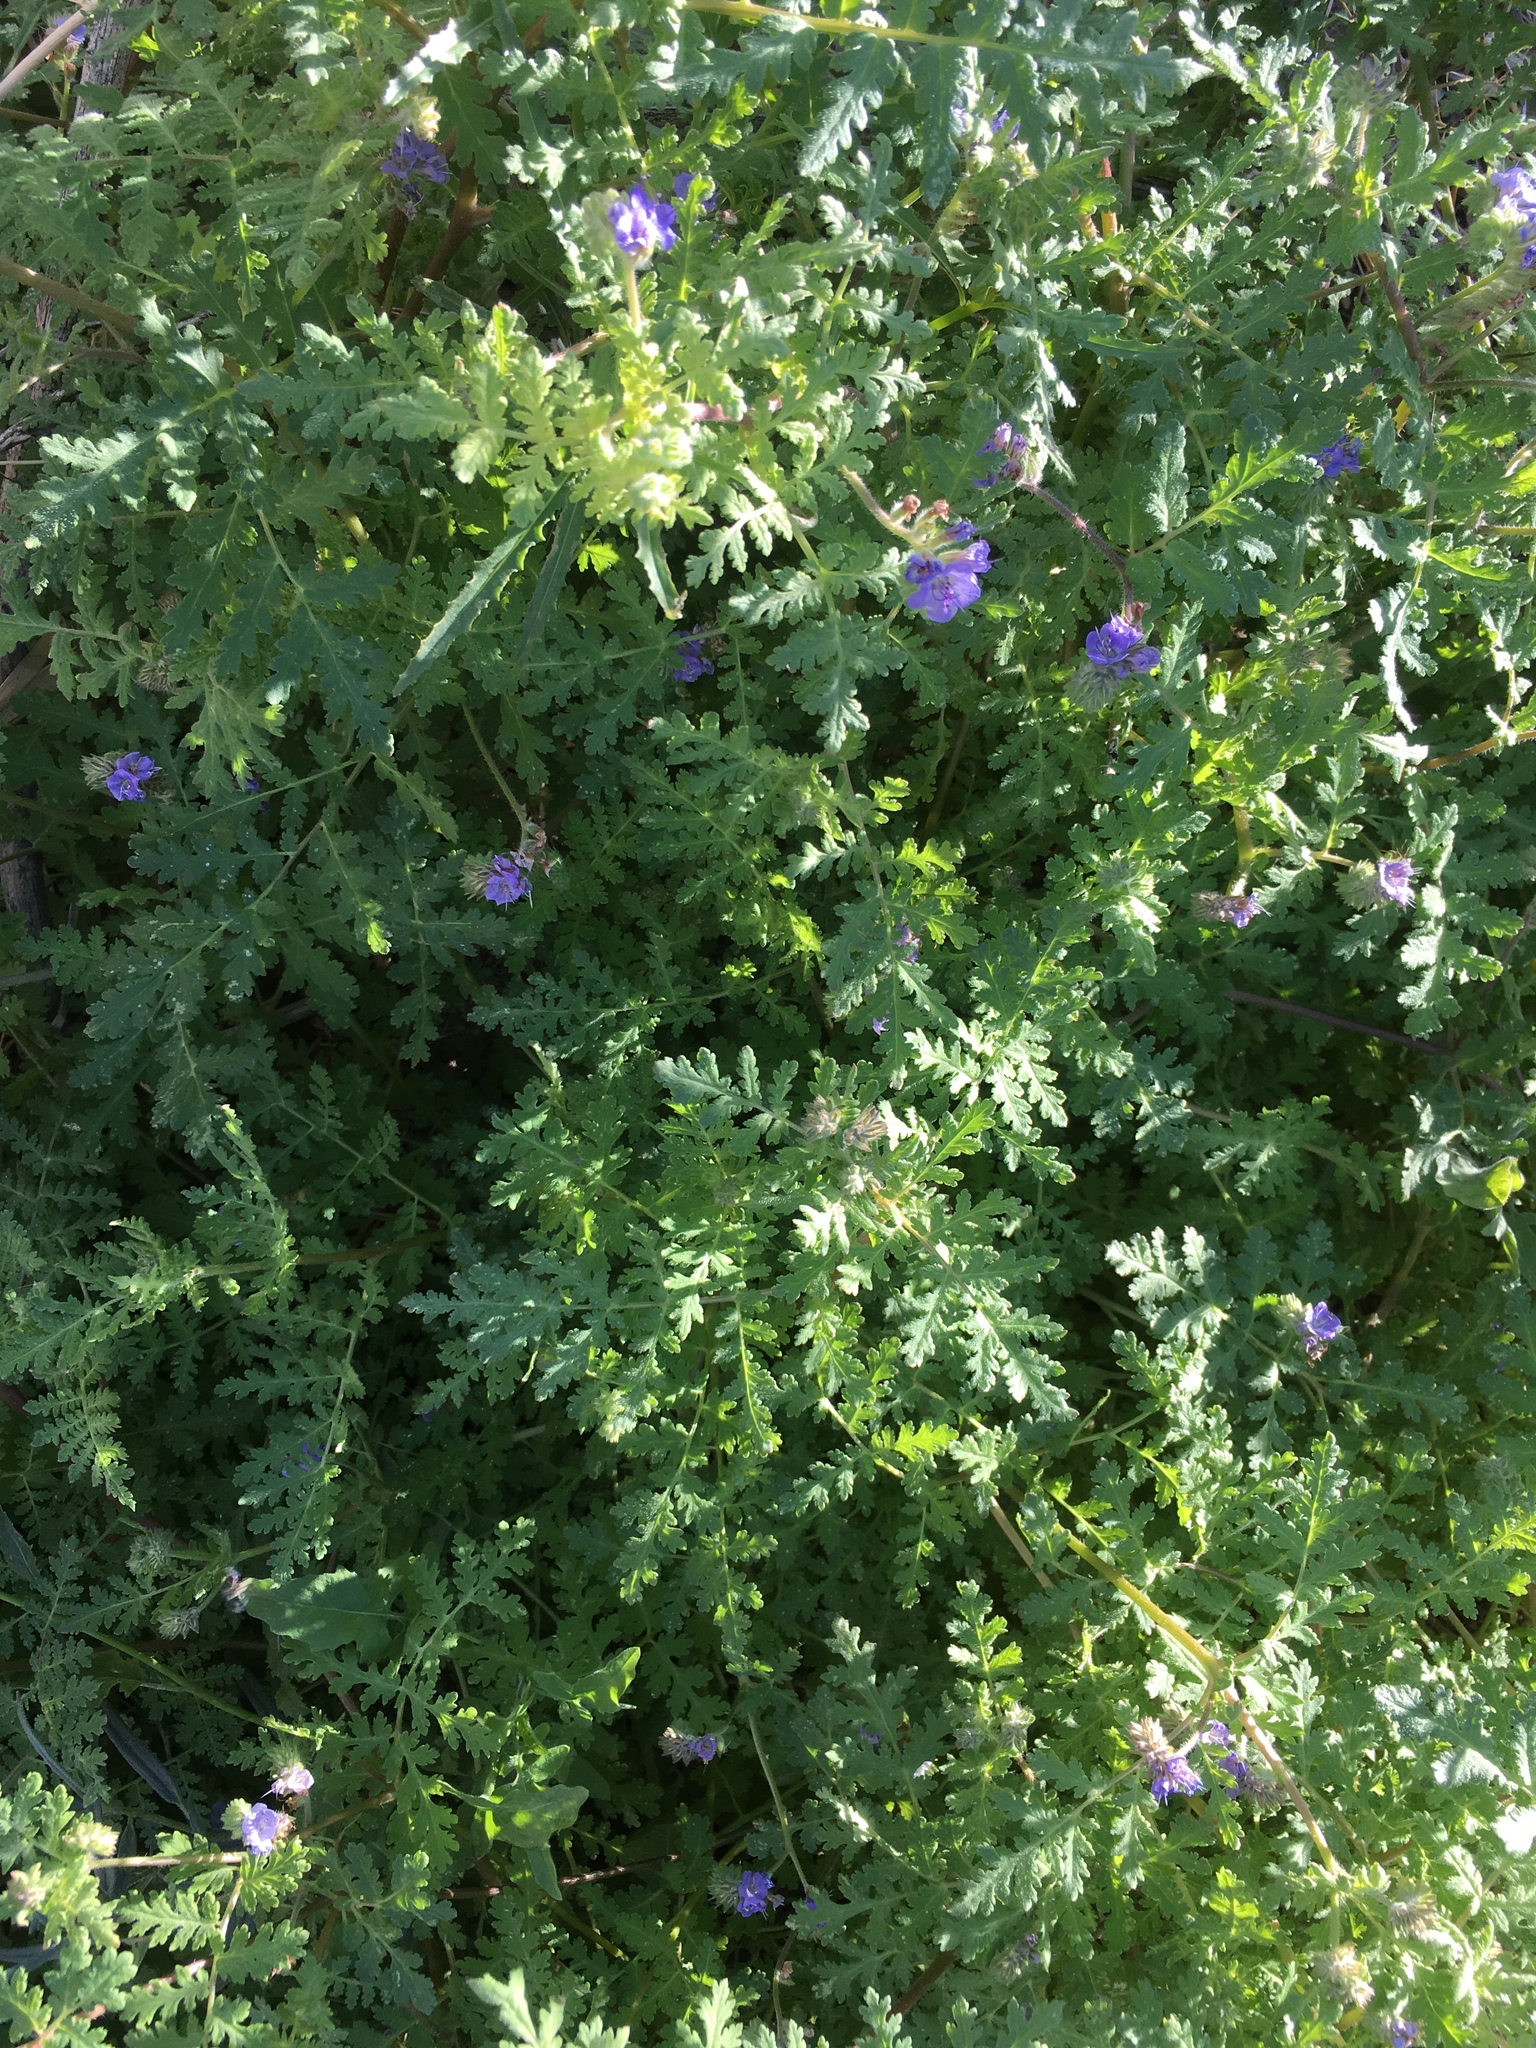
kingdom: Plantae
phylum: Tracheophyta
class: Magnoliopsida
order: Boraginales
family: Hydrophyllaceae
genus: Phacelia
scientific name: Phacelia distans
